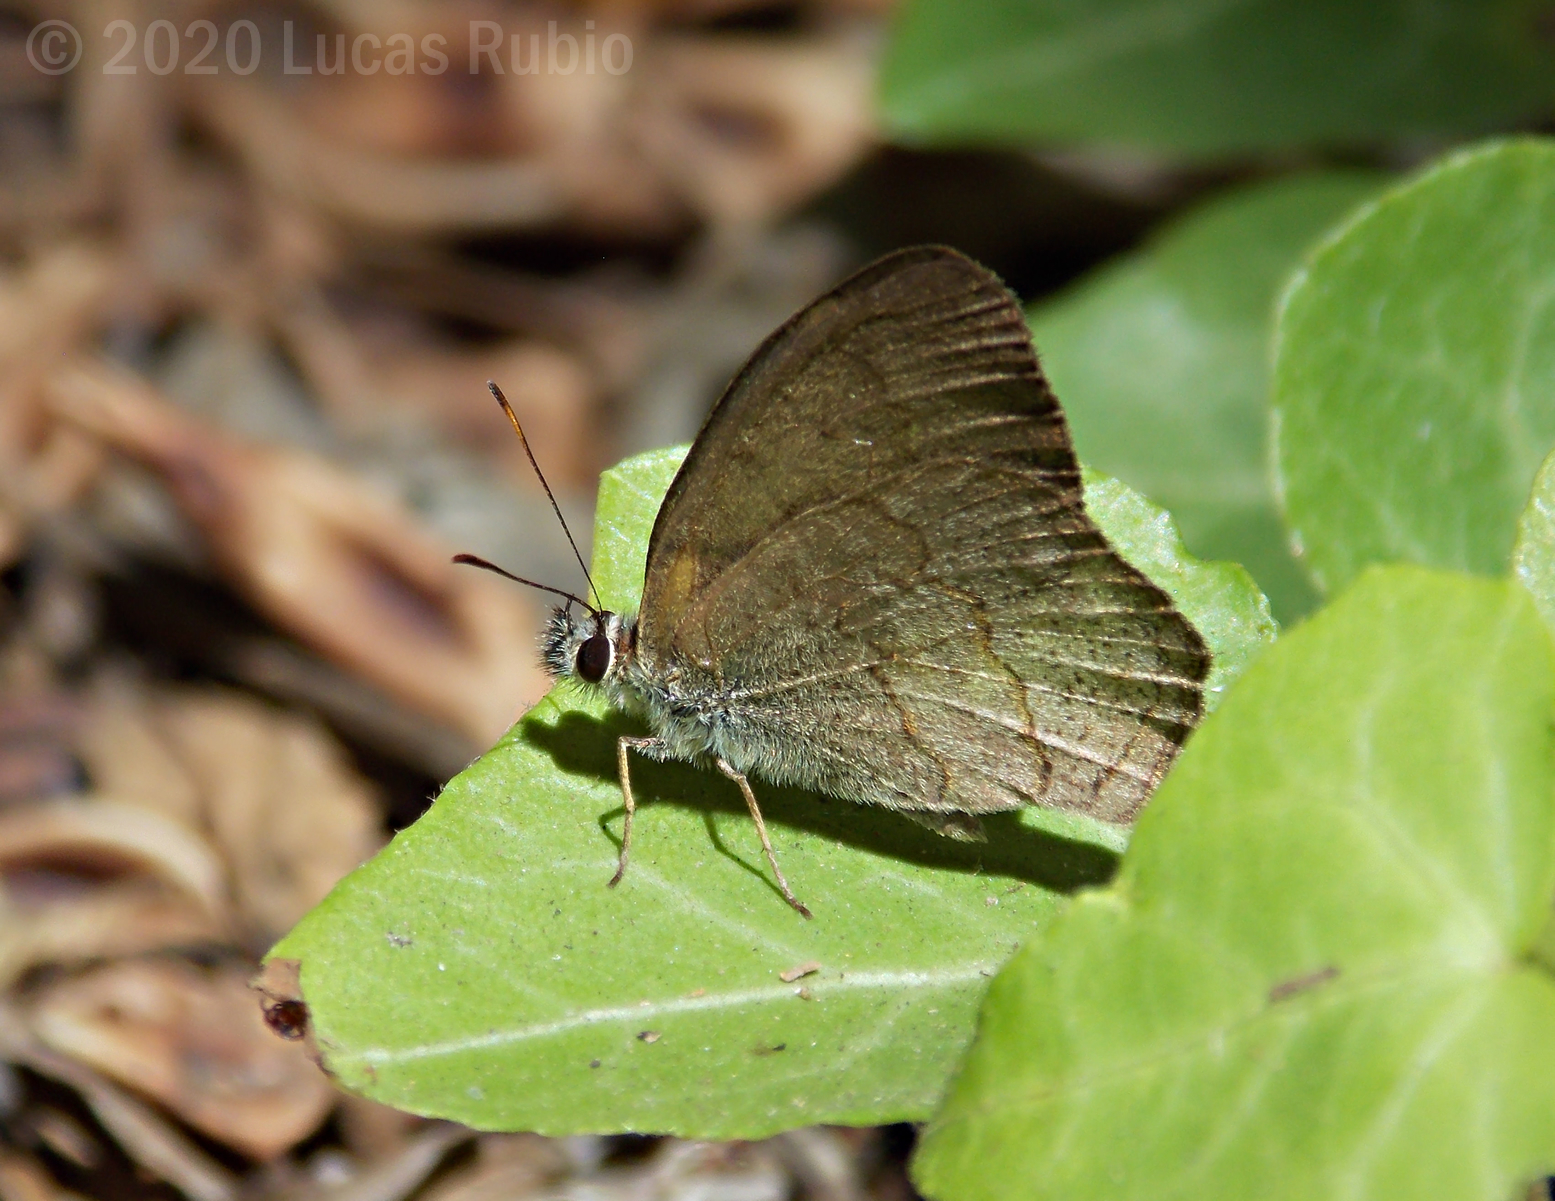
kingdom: Animalia
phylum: Arthropoda
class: Insecta
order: Lepidoptera
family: Nymphalidae
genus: Euptychia
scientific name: Euptychia
